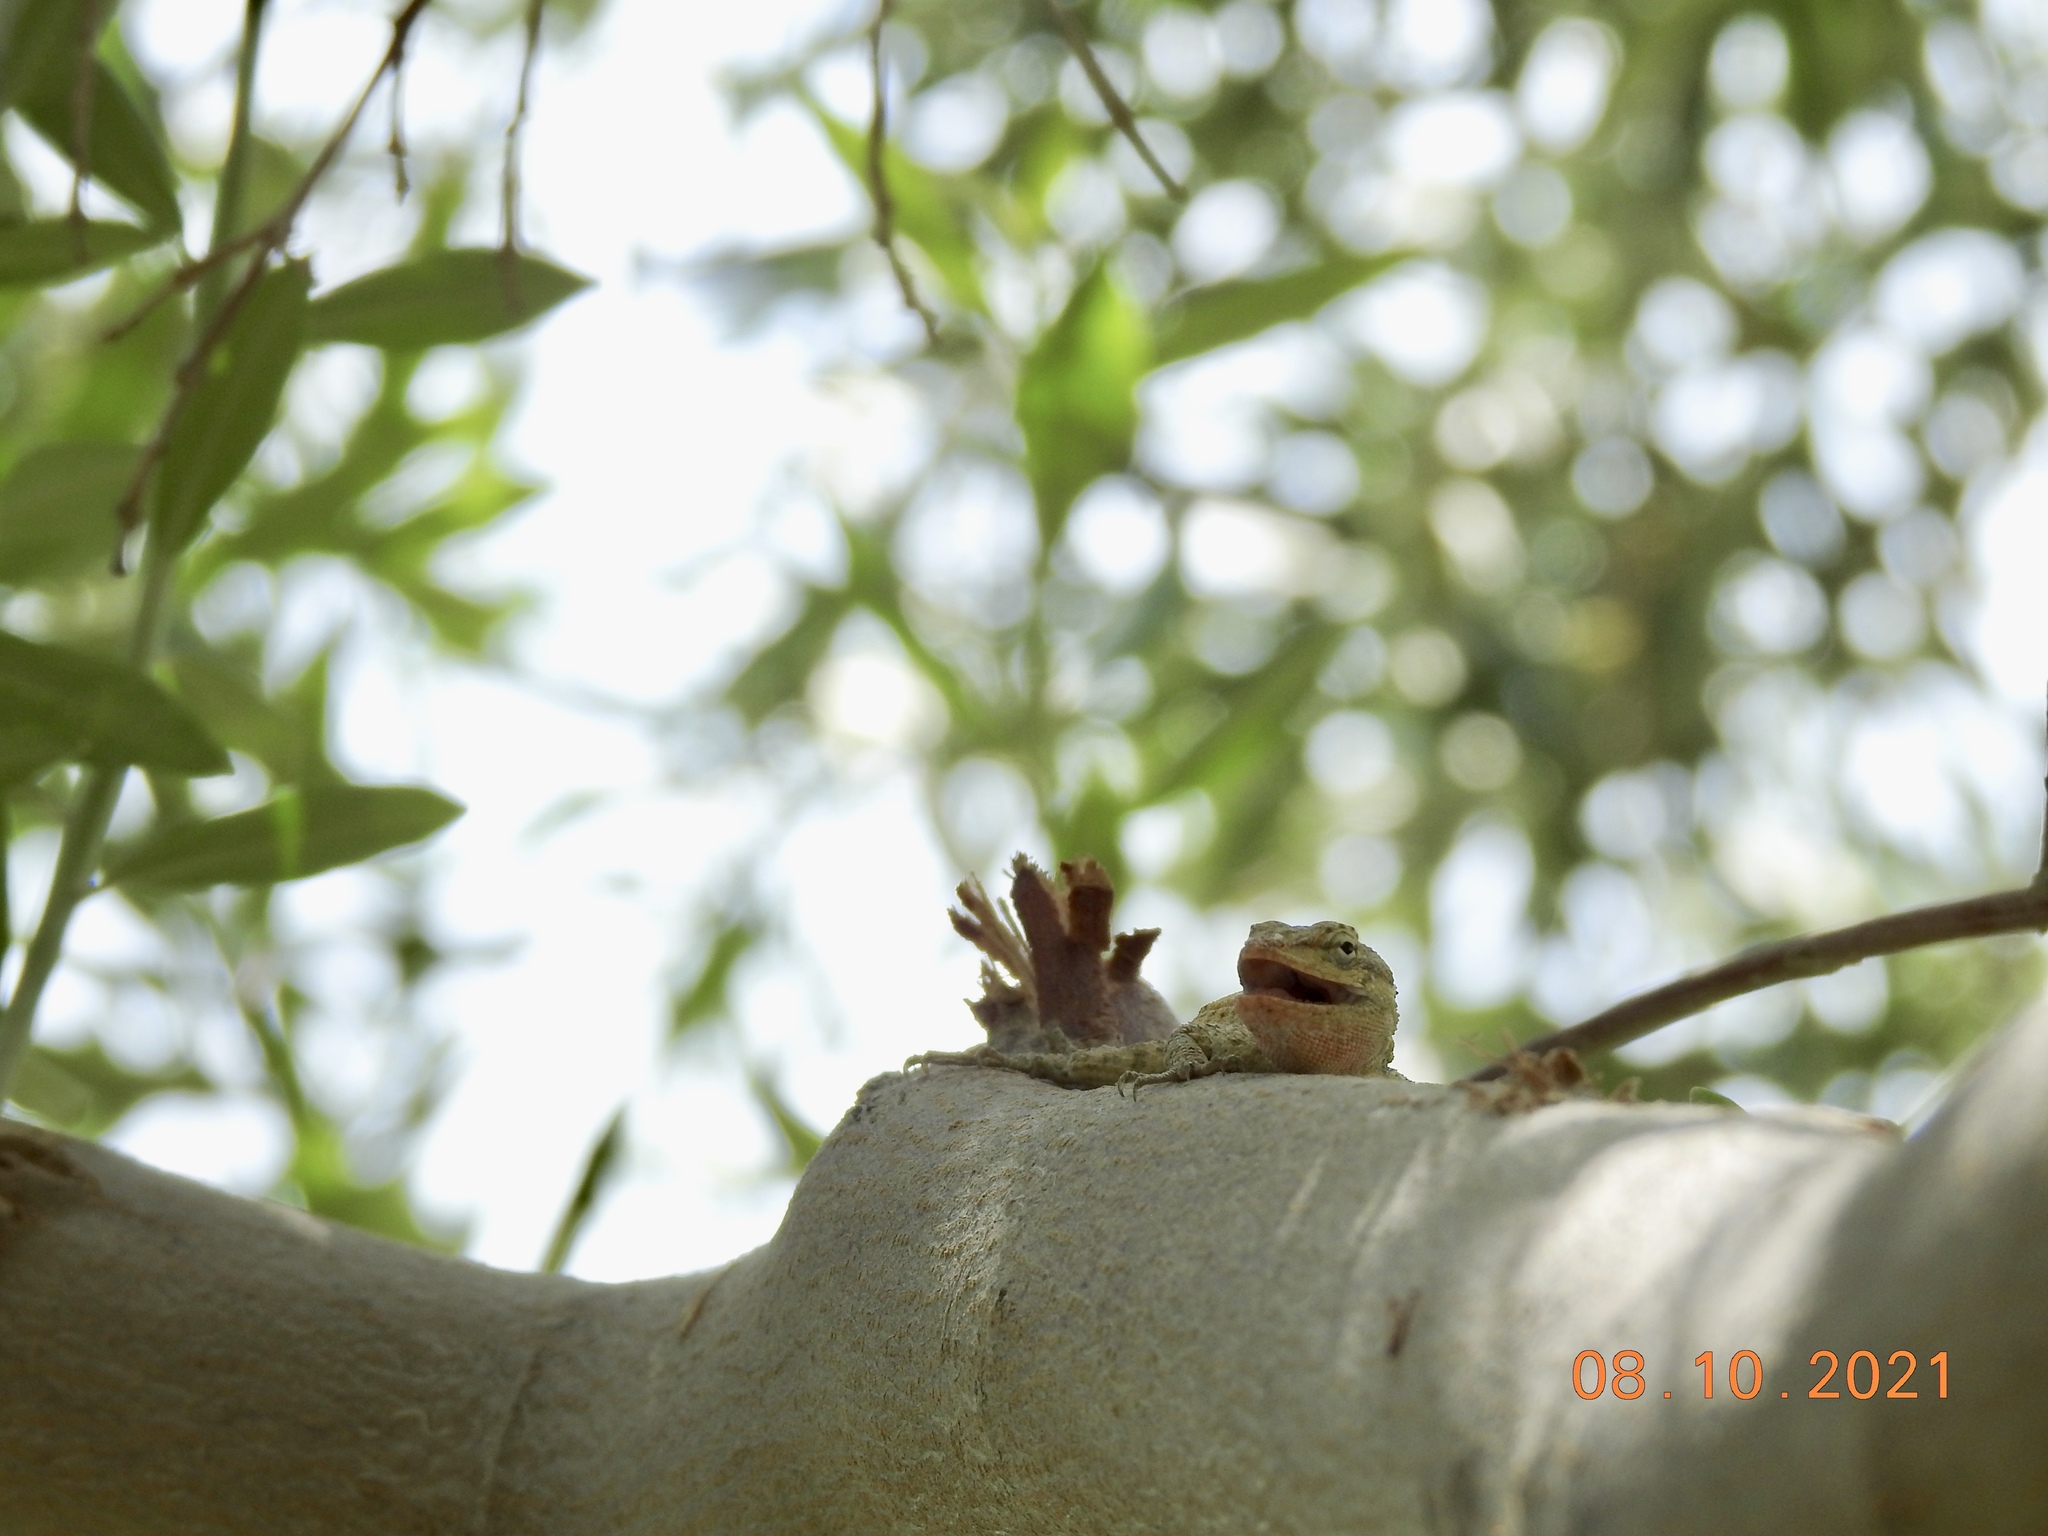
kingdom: Animalia
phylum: Chordata
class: Squamata
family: Phrynosomatidae
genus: Urosaurus
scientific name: Urosaurus graciosus
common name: Long-tailed brush lizard
